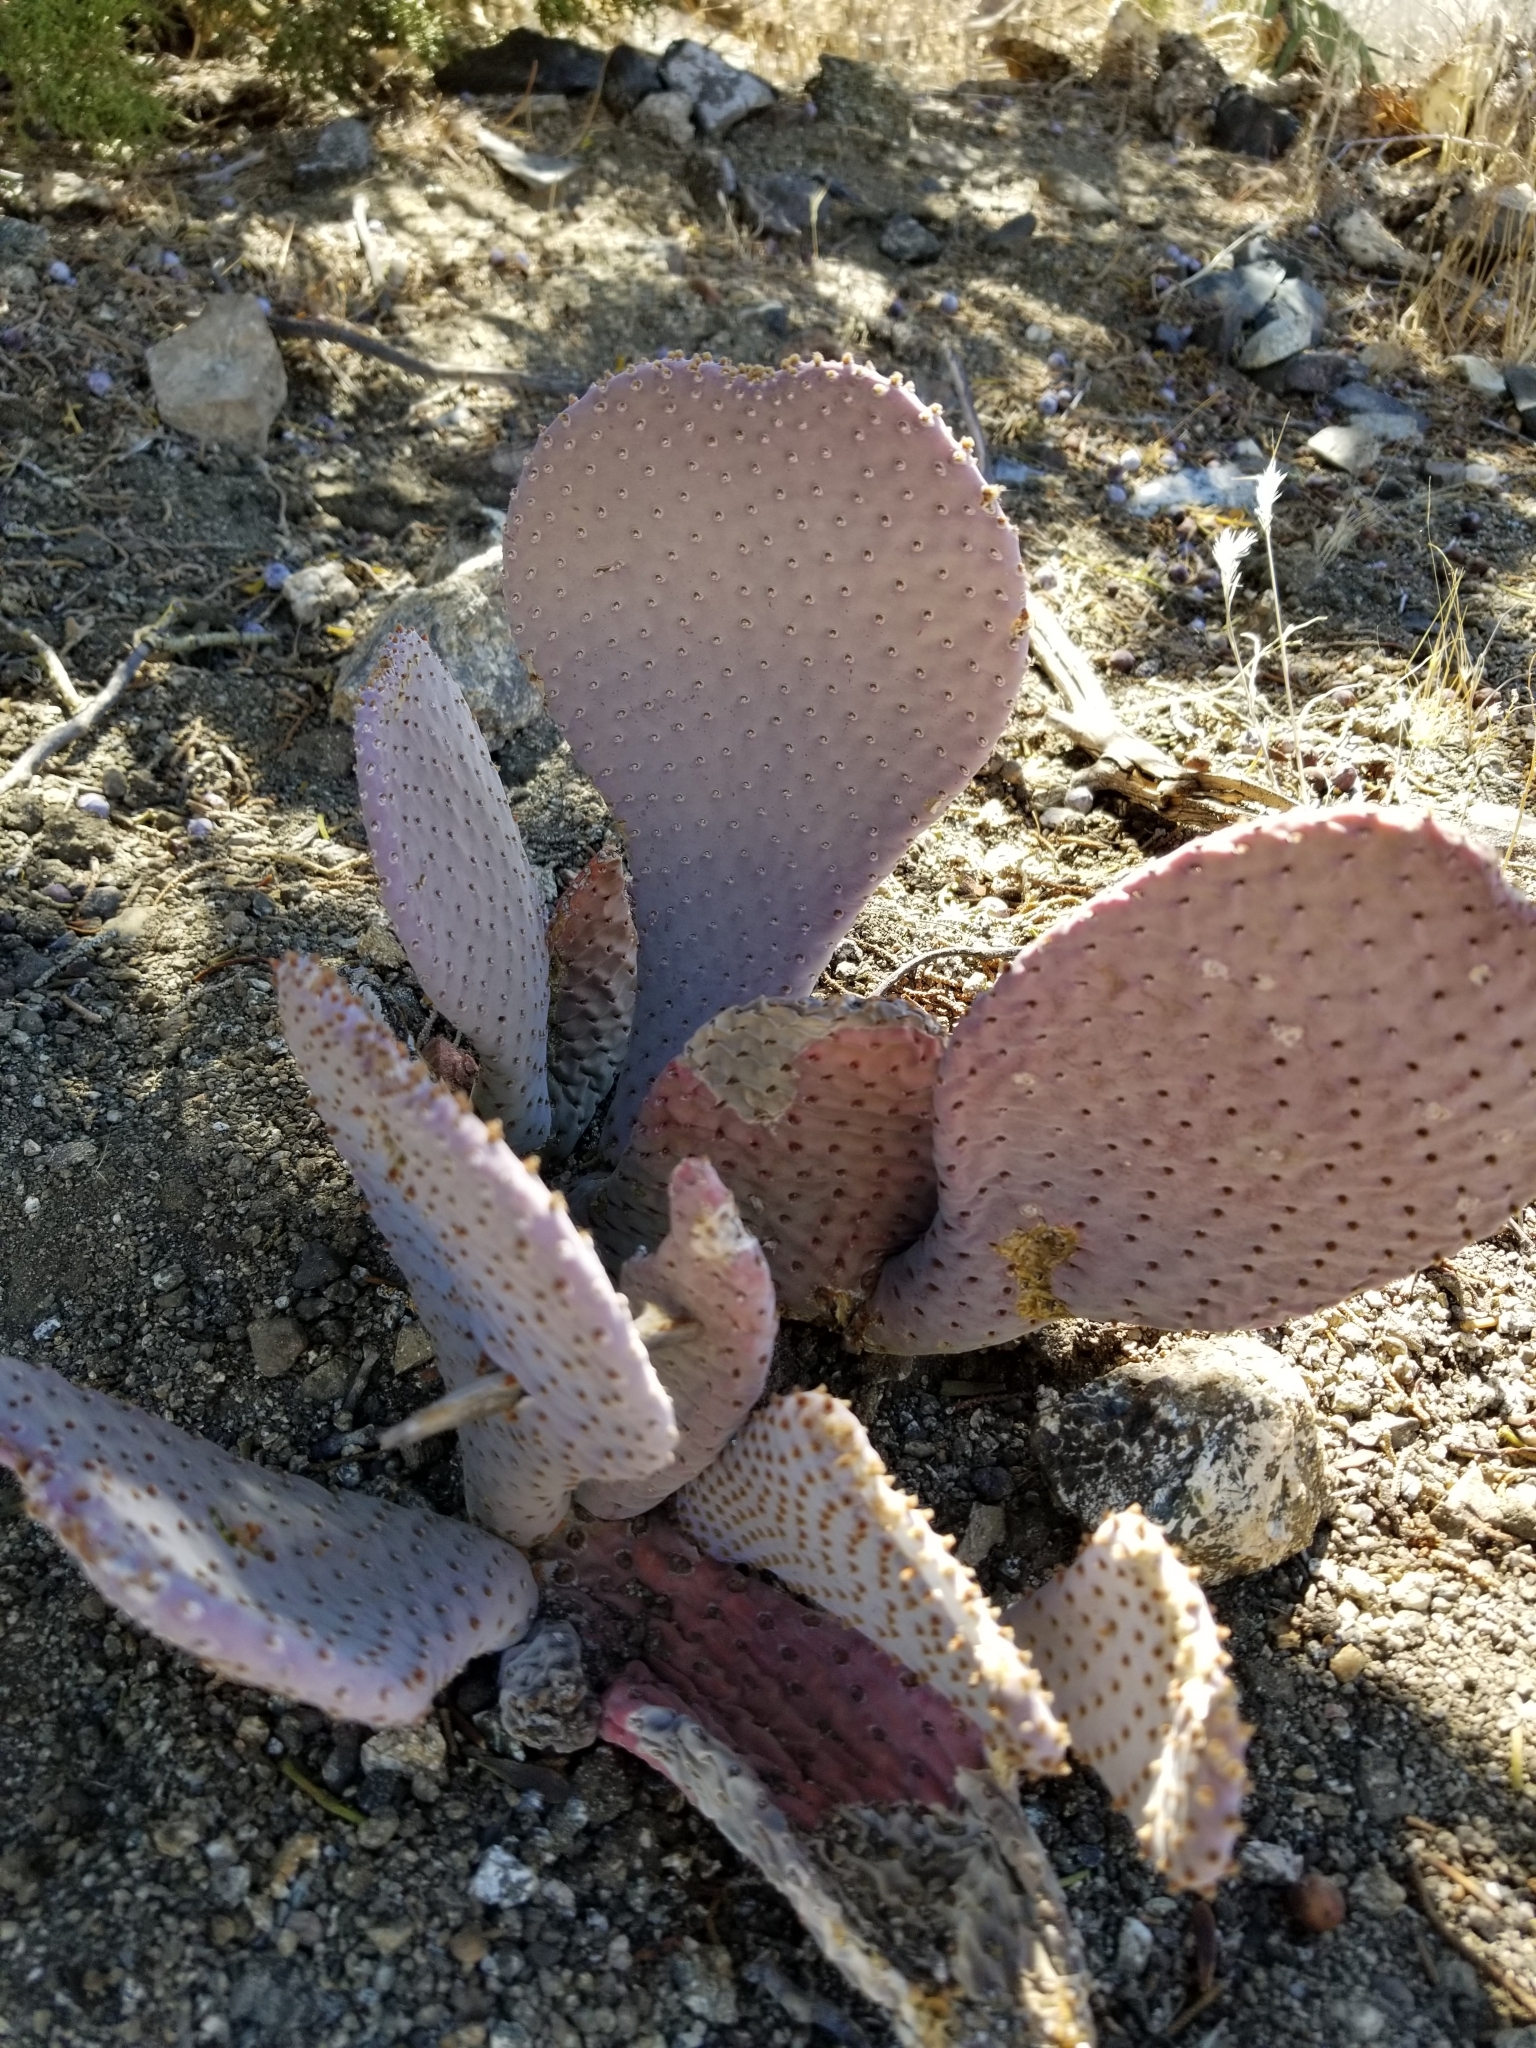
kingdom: Plantae
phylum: Tracheophyta
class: Magnoliopsida
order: Caryophyllales
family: Cactaceae
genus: Opuntia
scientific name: Opuntia basilaris
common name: Beavertail prickly-pear
